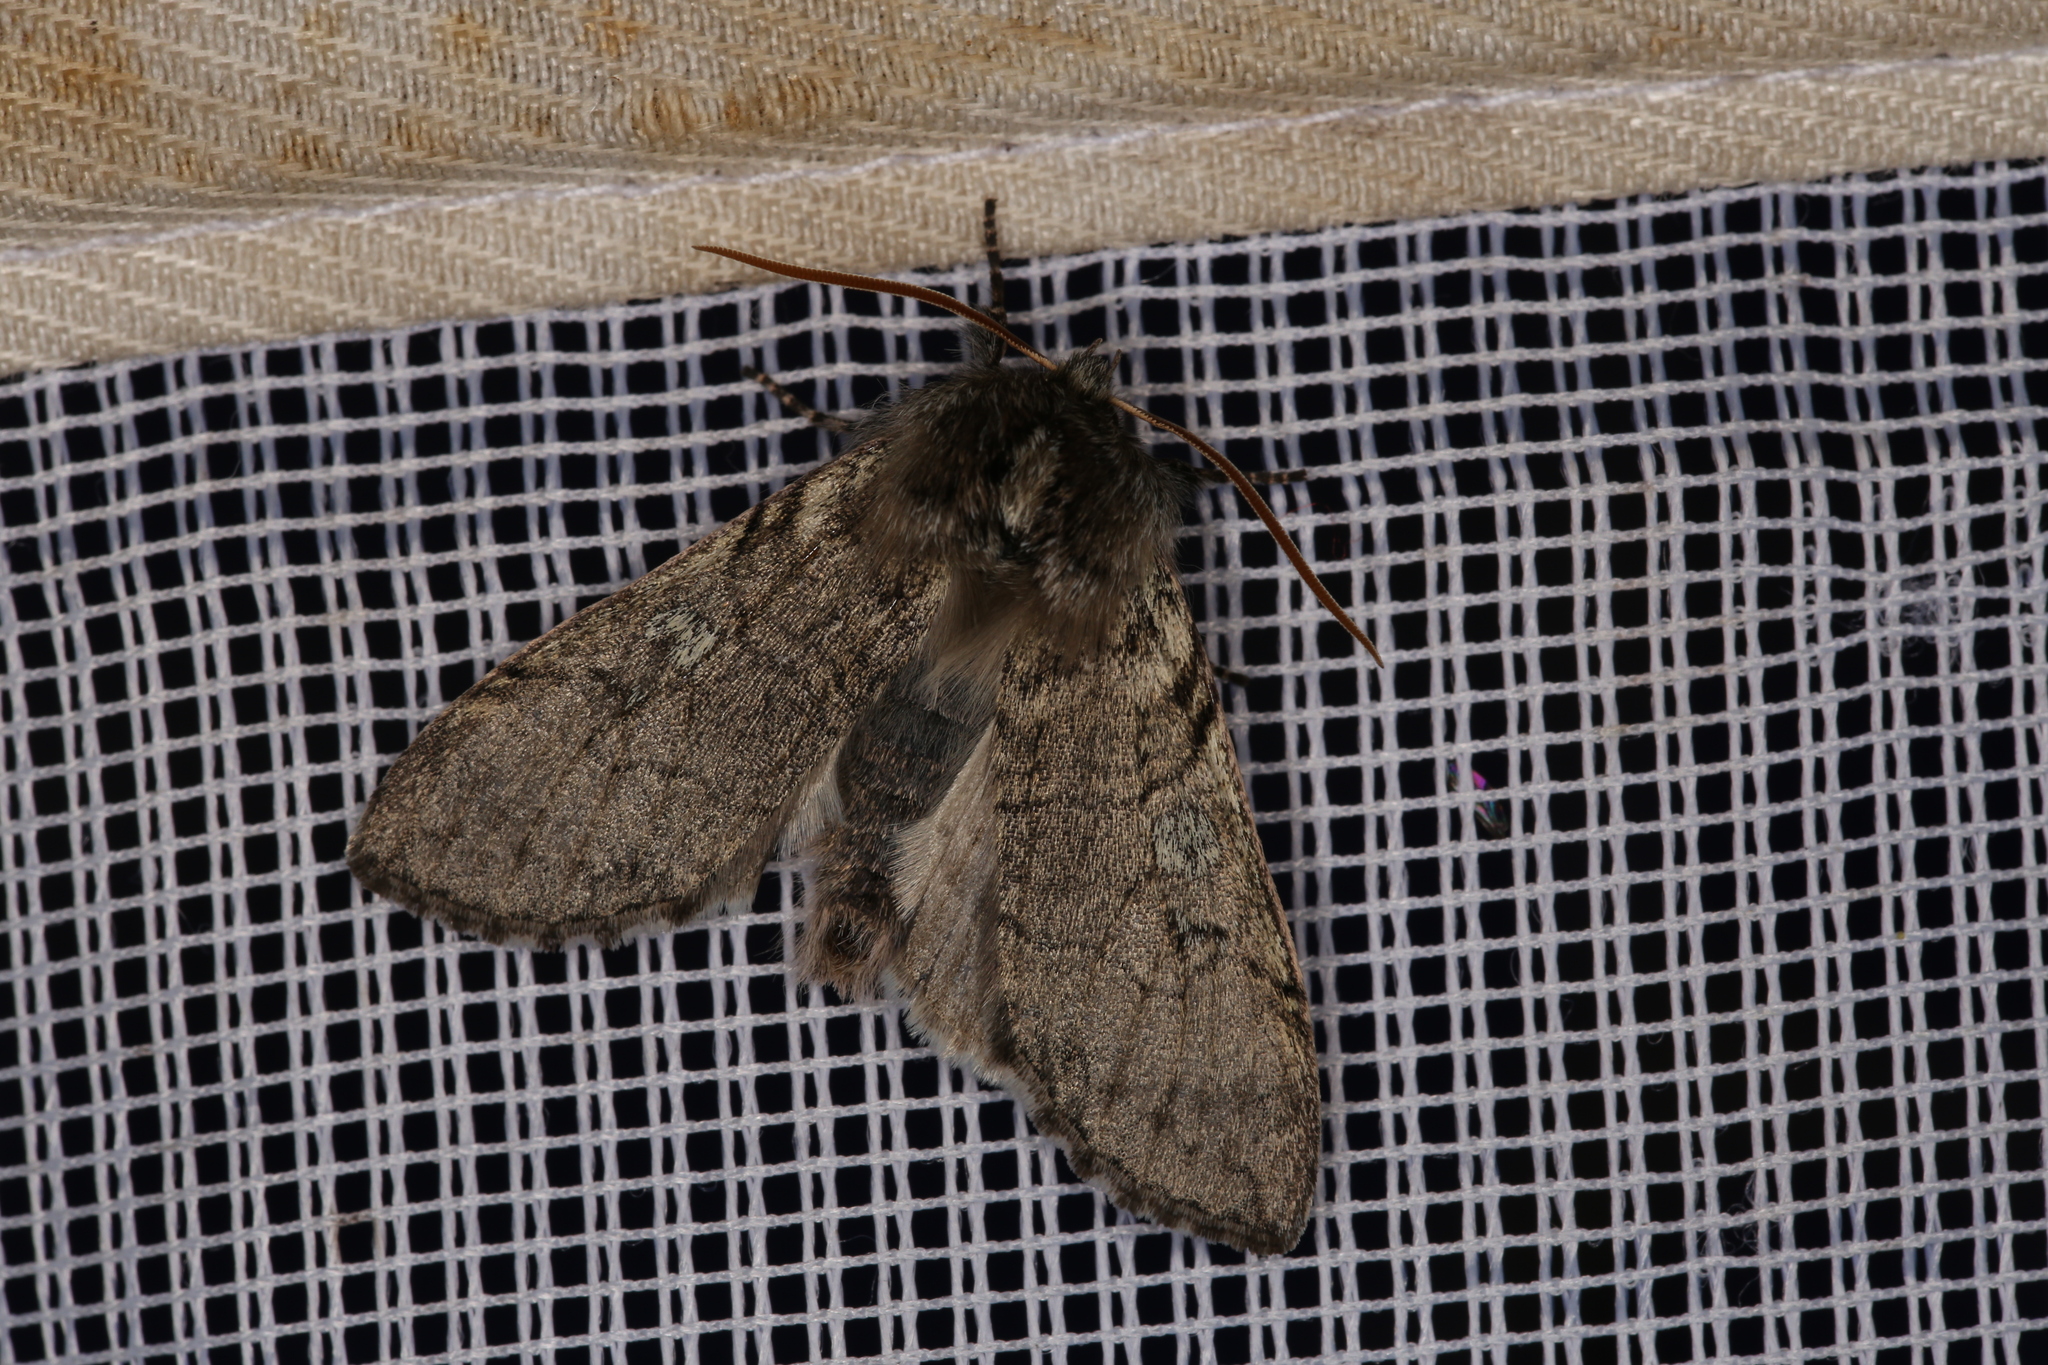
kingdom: Animalia
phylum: Arthropoda
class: Insecta
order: Lepidoptera
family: Drepanidae
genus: Achlya
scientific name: Achlya flavicornis
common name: Yellow horned
